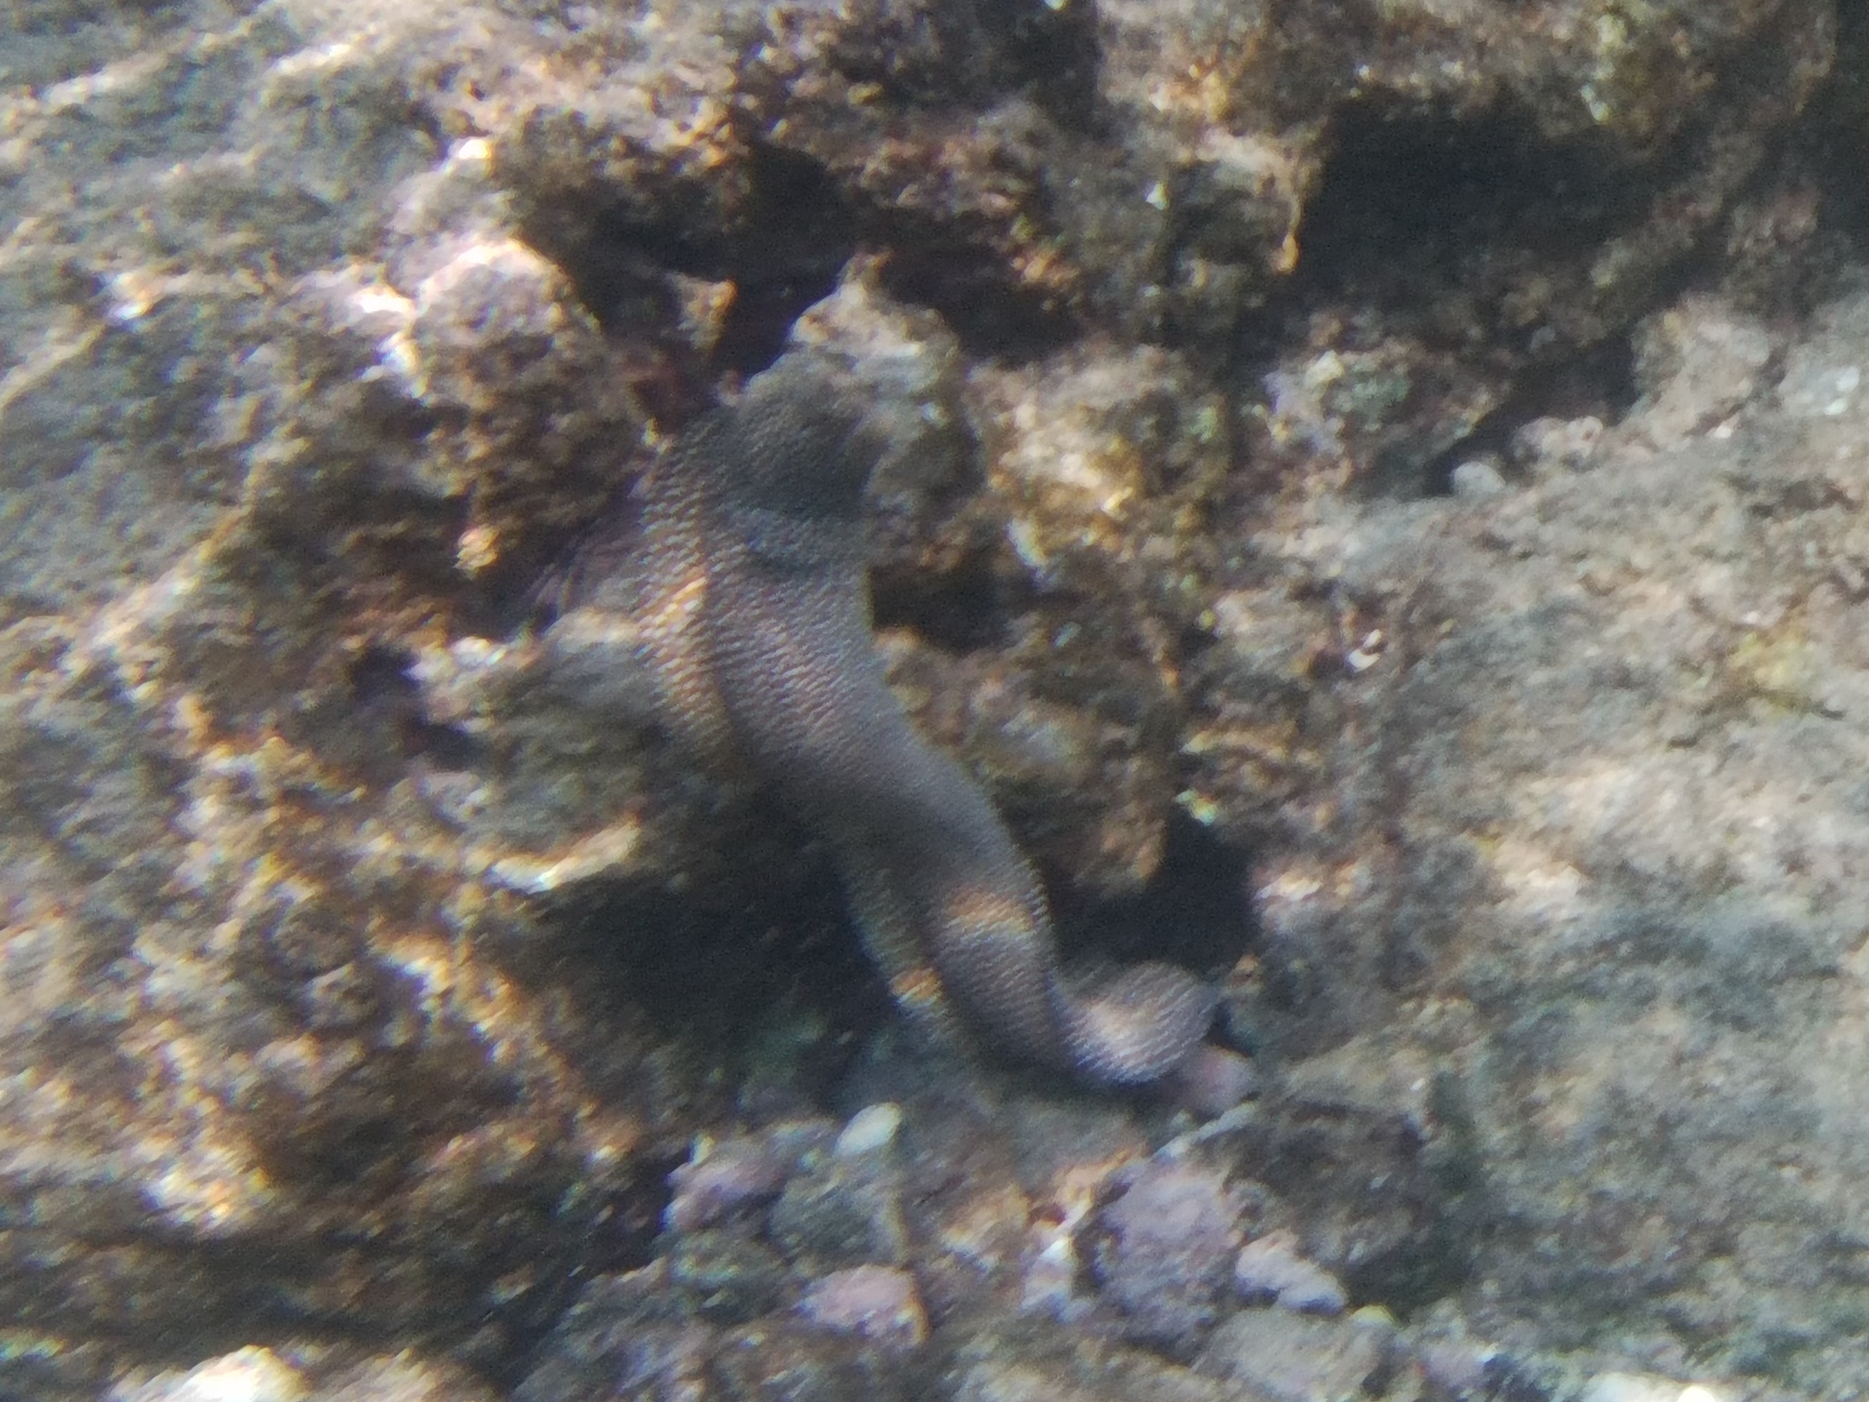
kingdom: Animalia
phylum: Chordata
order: Anguilliformes
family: Muraenidae
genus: Gymnothorax
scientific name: Gymnothorax meleagris
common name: Guineafowl moray
